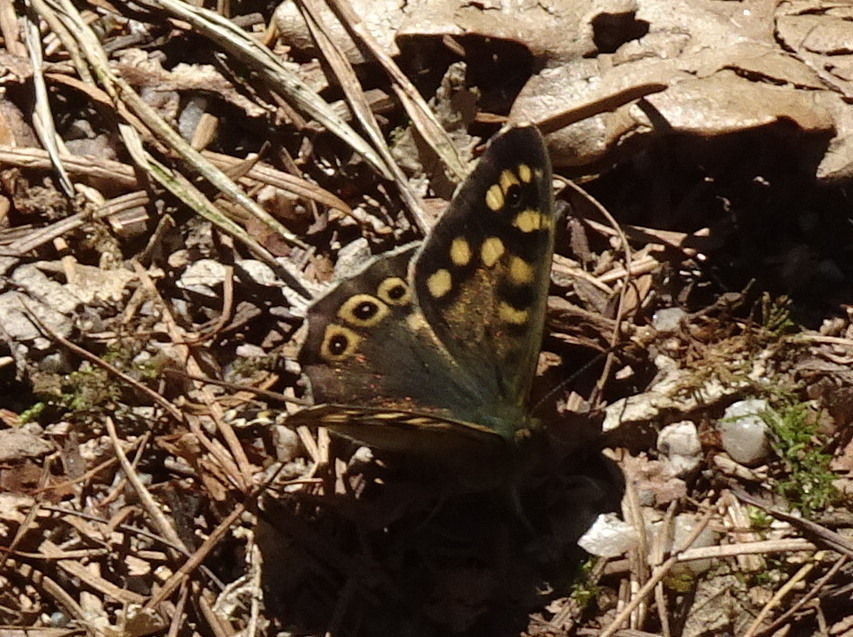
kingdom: Animalia
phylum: Arthropoda
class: Insecta
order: Lepidoptera
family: Nymphalidae
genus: Pararge
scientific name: Pararge aegeria
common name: Speckled wood
